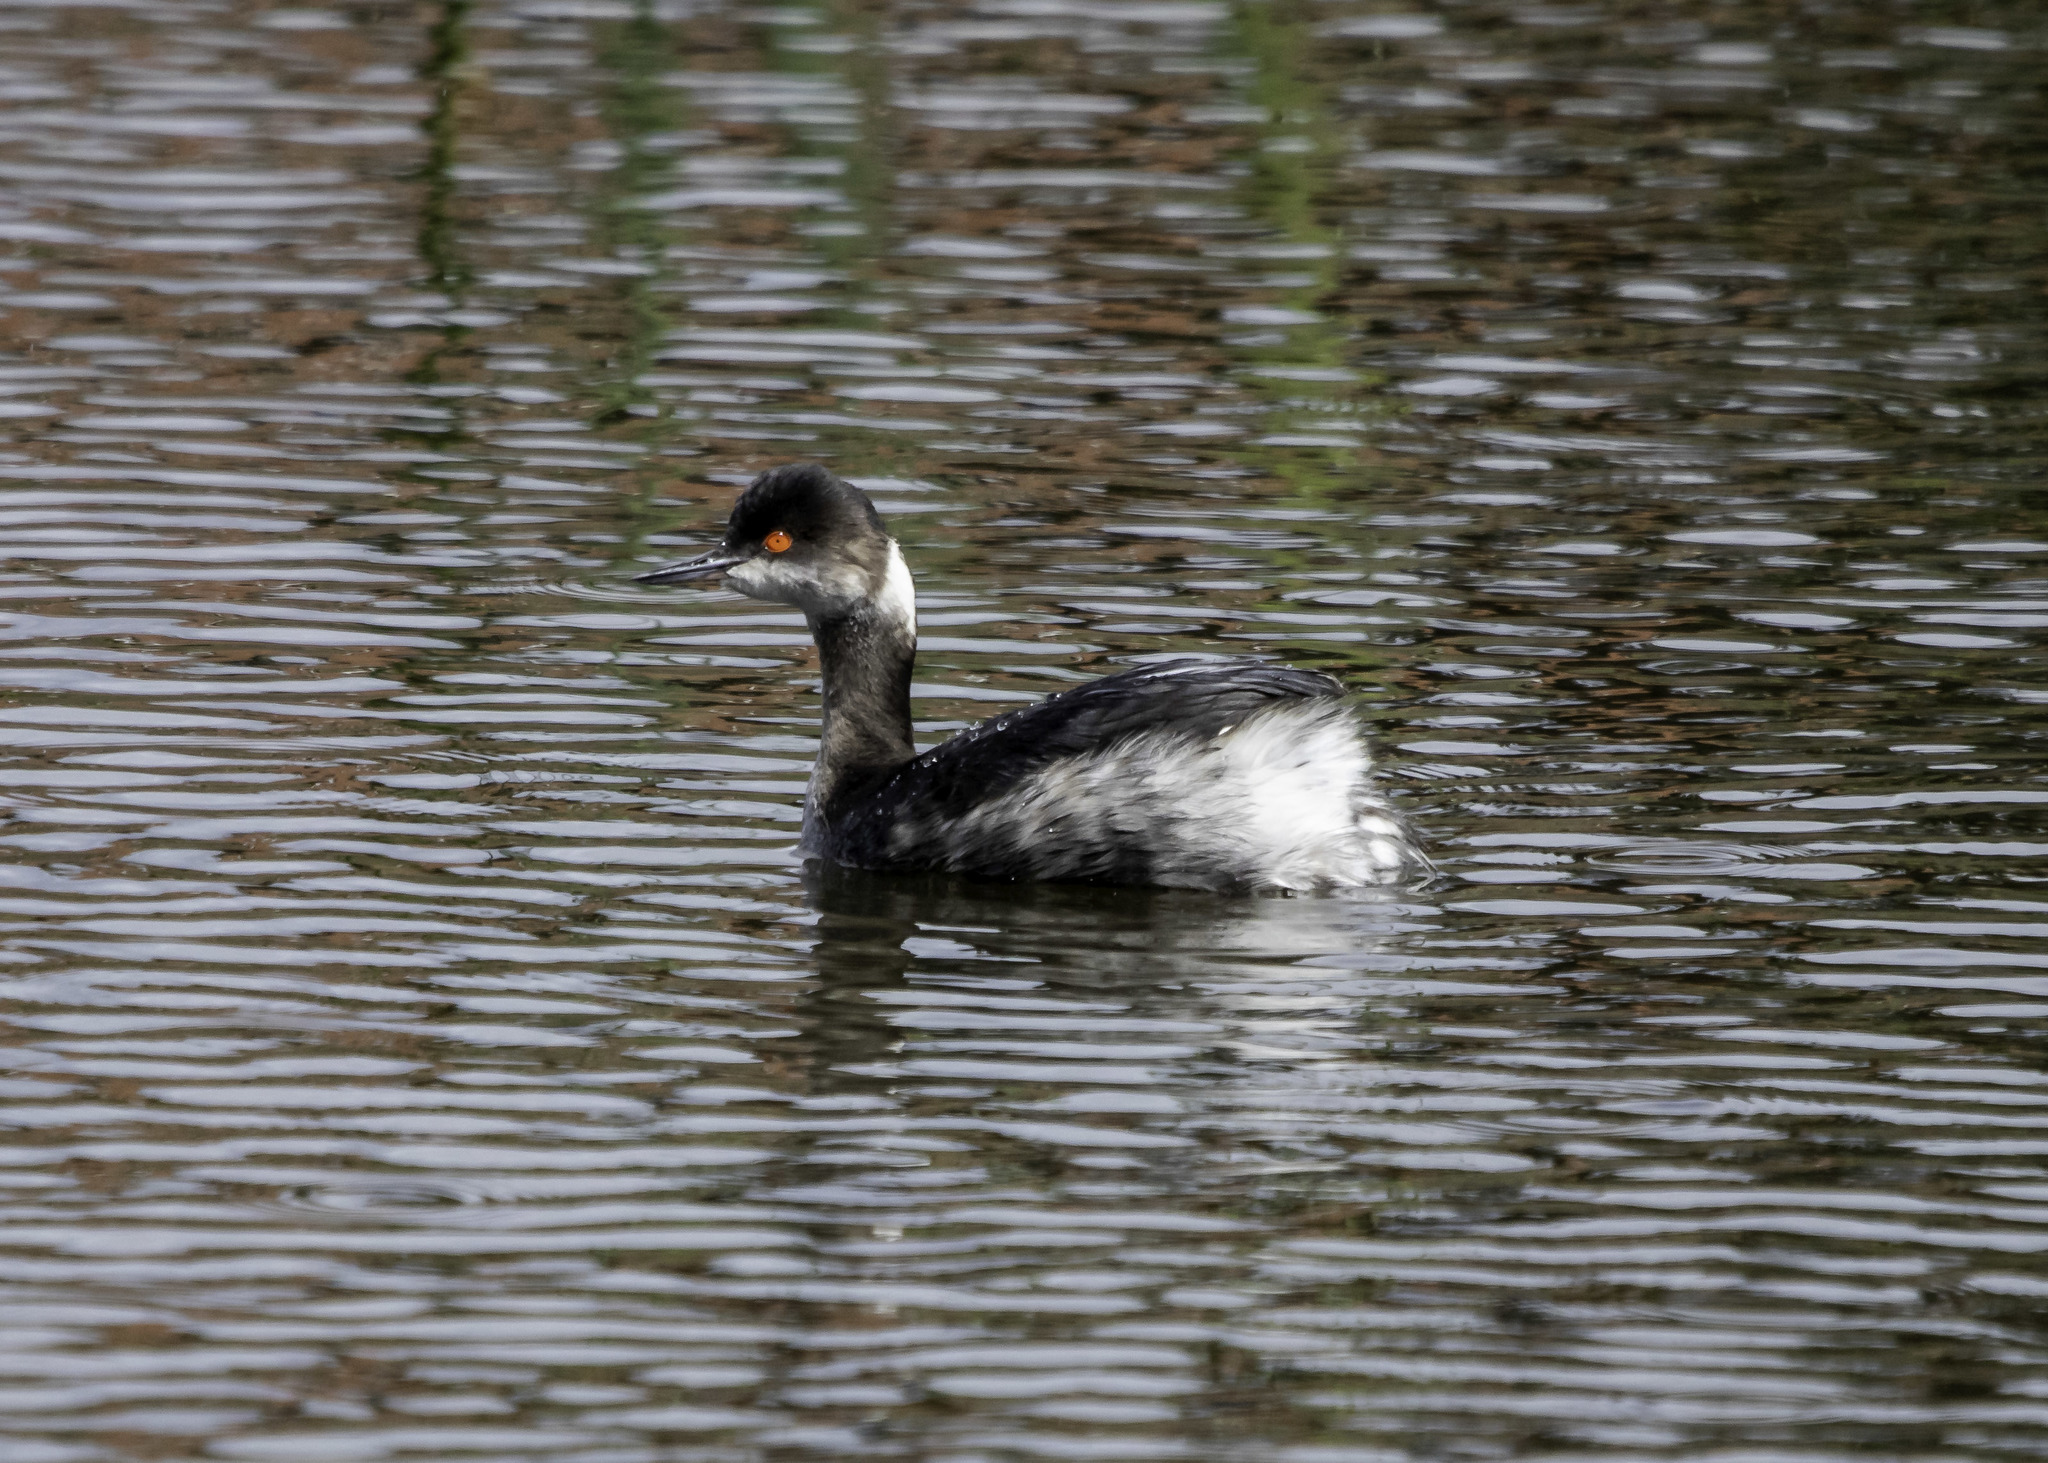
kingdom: Animalia
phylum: Chordata
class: Aves
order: Podicipediformes
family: Podicipedidae
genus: Podiceps
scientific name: Podiceps nigricollis
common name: Black-necked grebe
